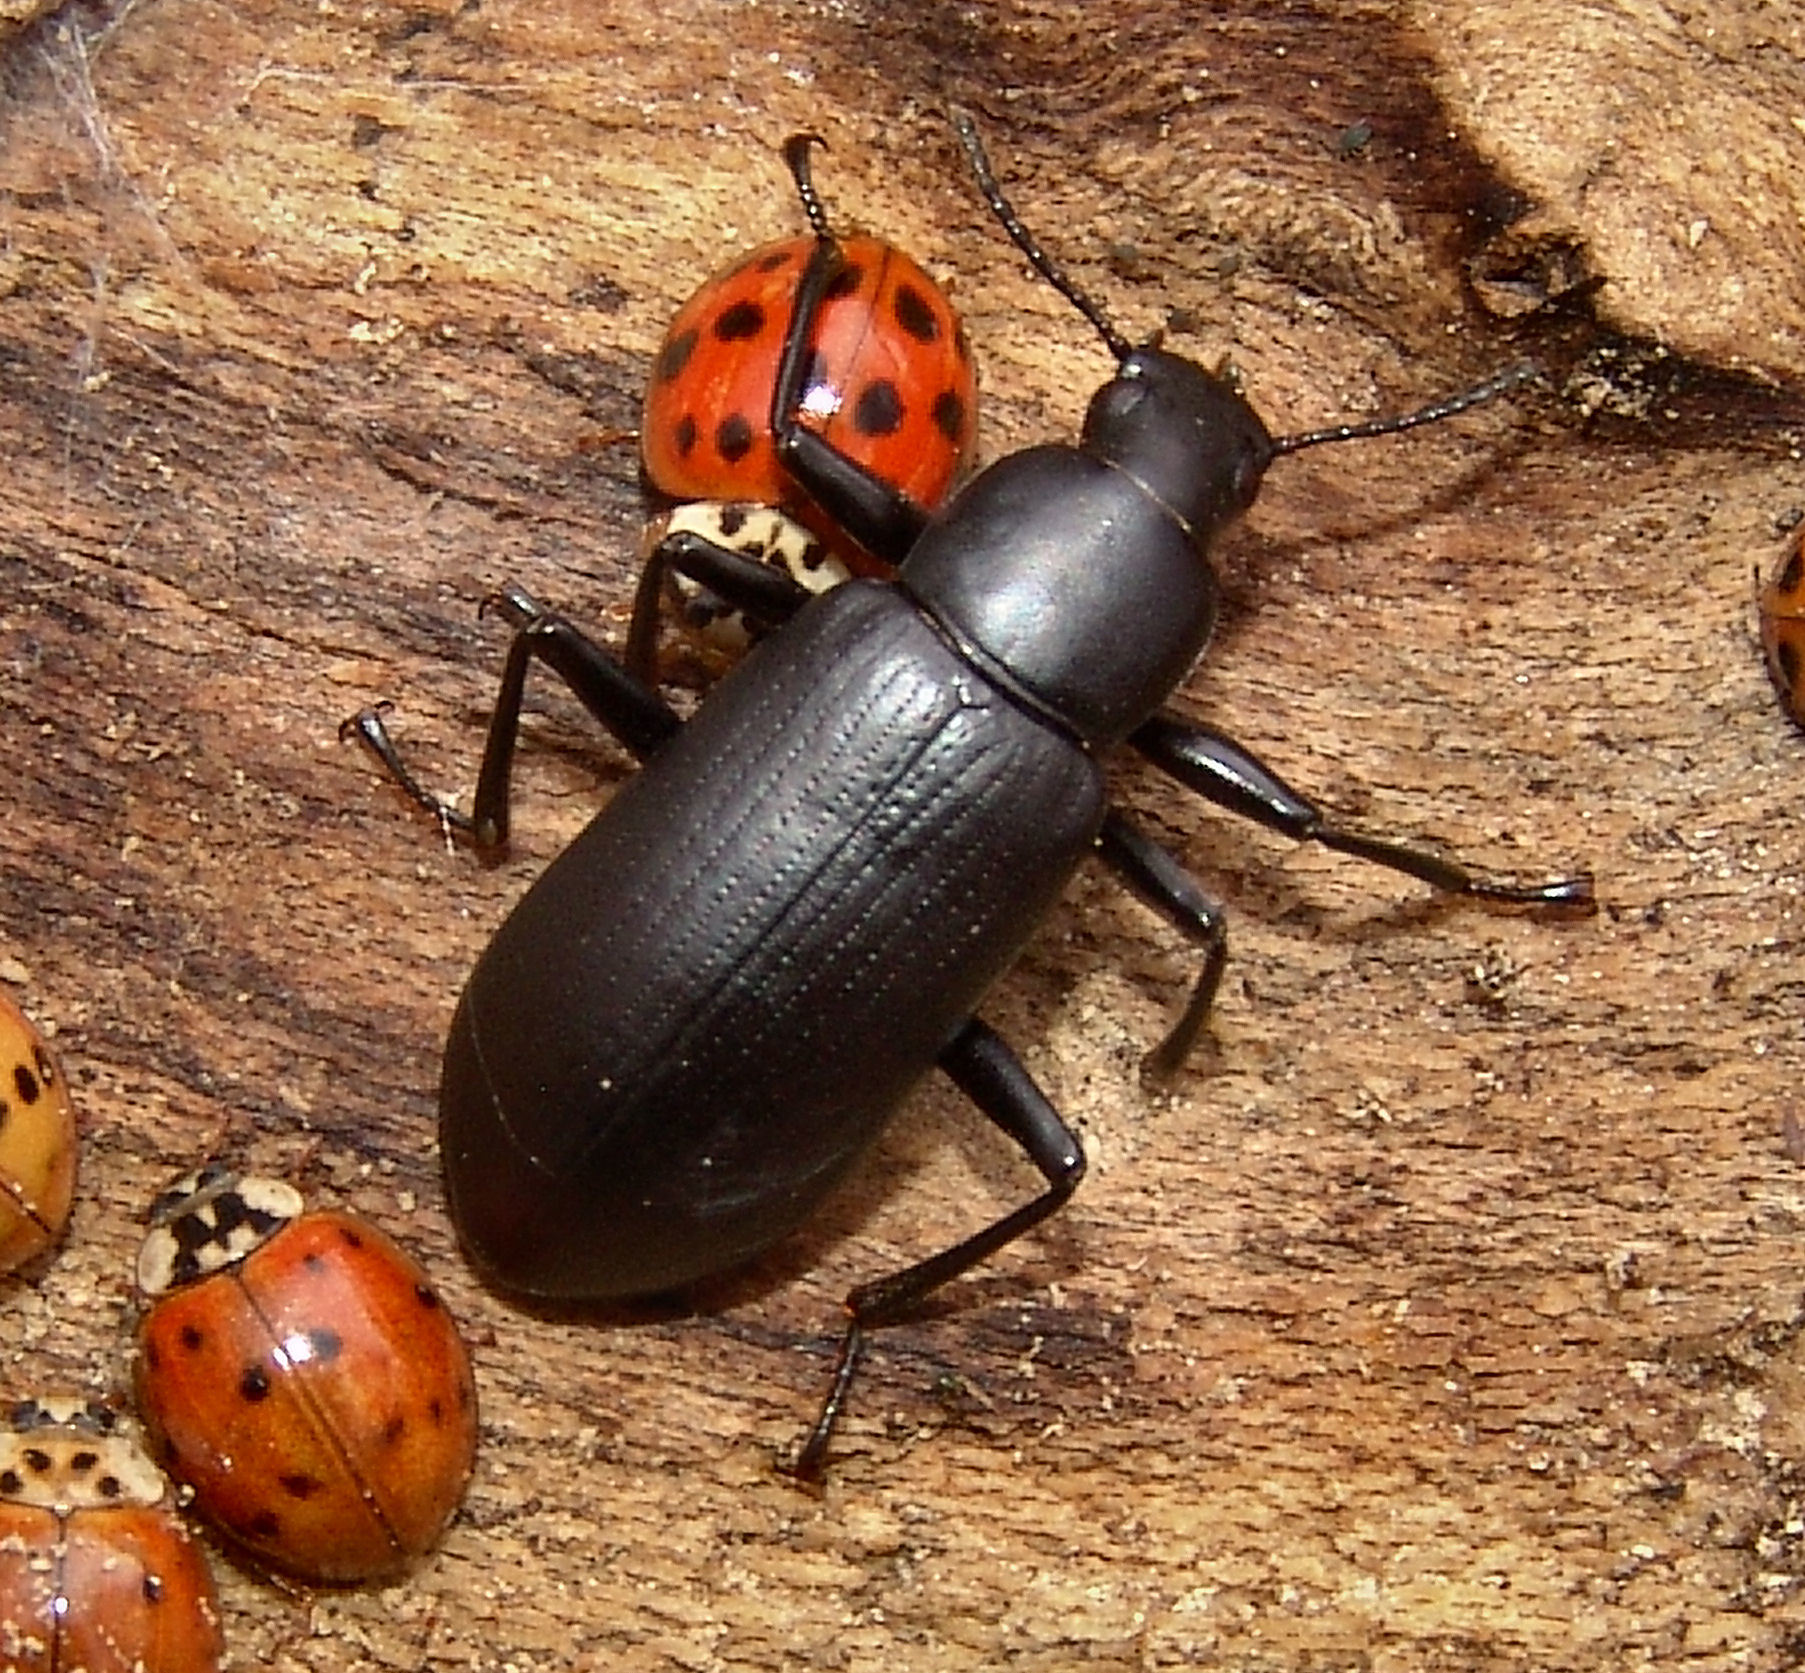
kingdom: Animalia
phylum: Arthropoda
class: Insecta
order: Coleoptera
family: Tenebrionidae
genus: Alobates
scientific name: Alobates pensylvanicus
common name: False mealworm beetle
